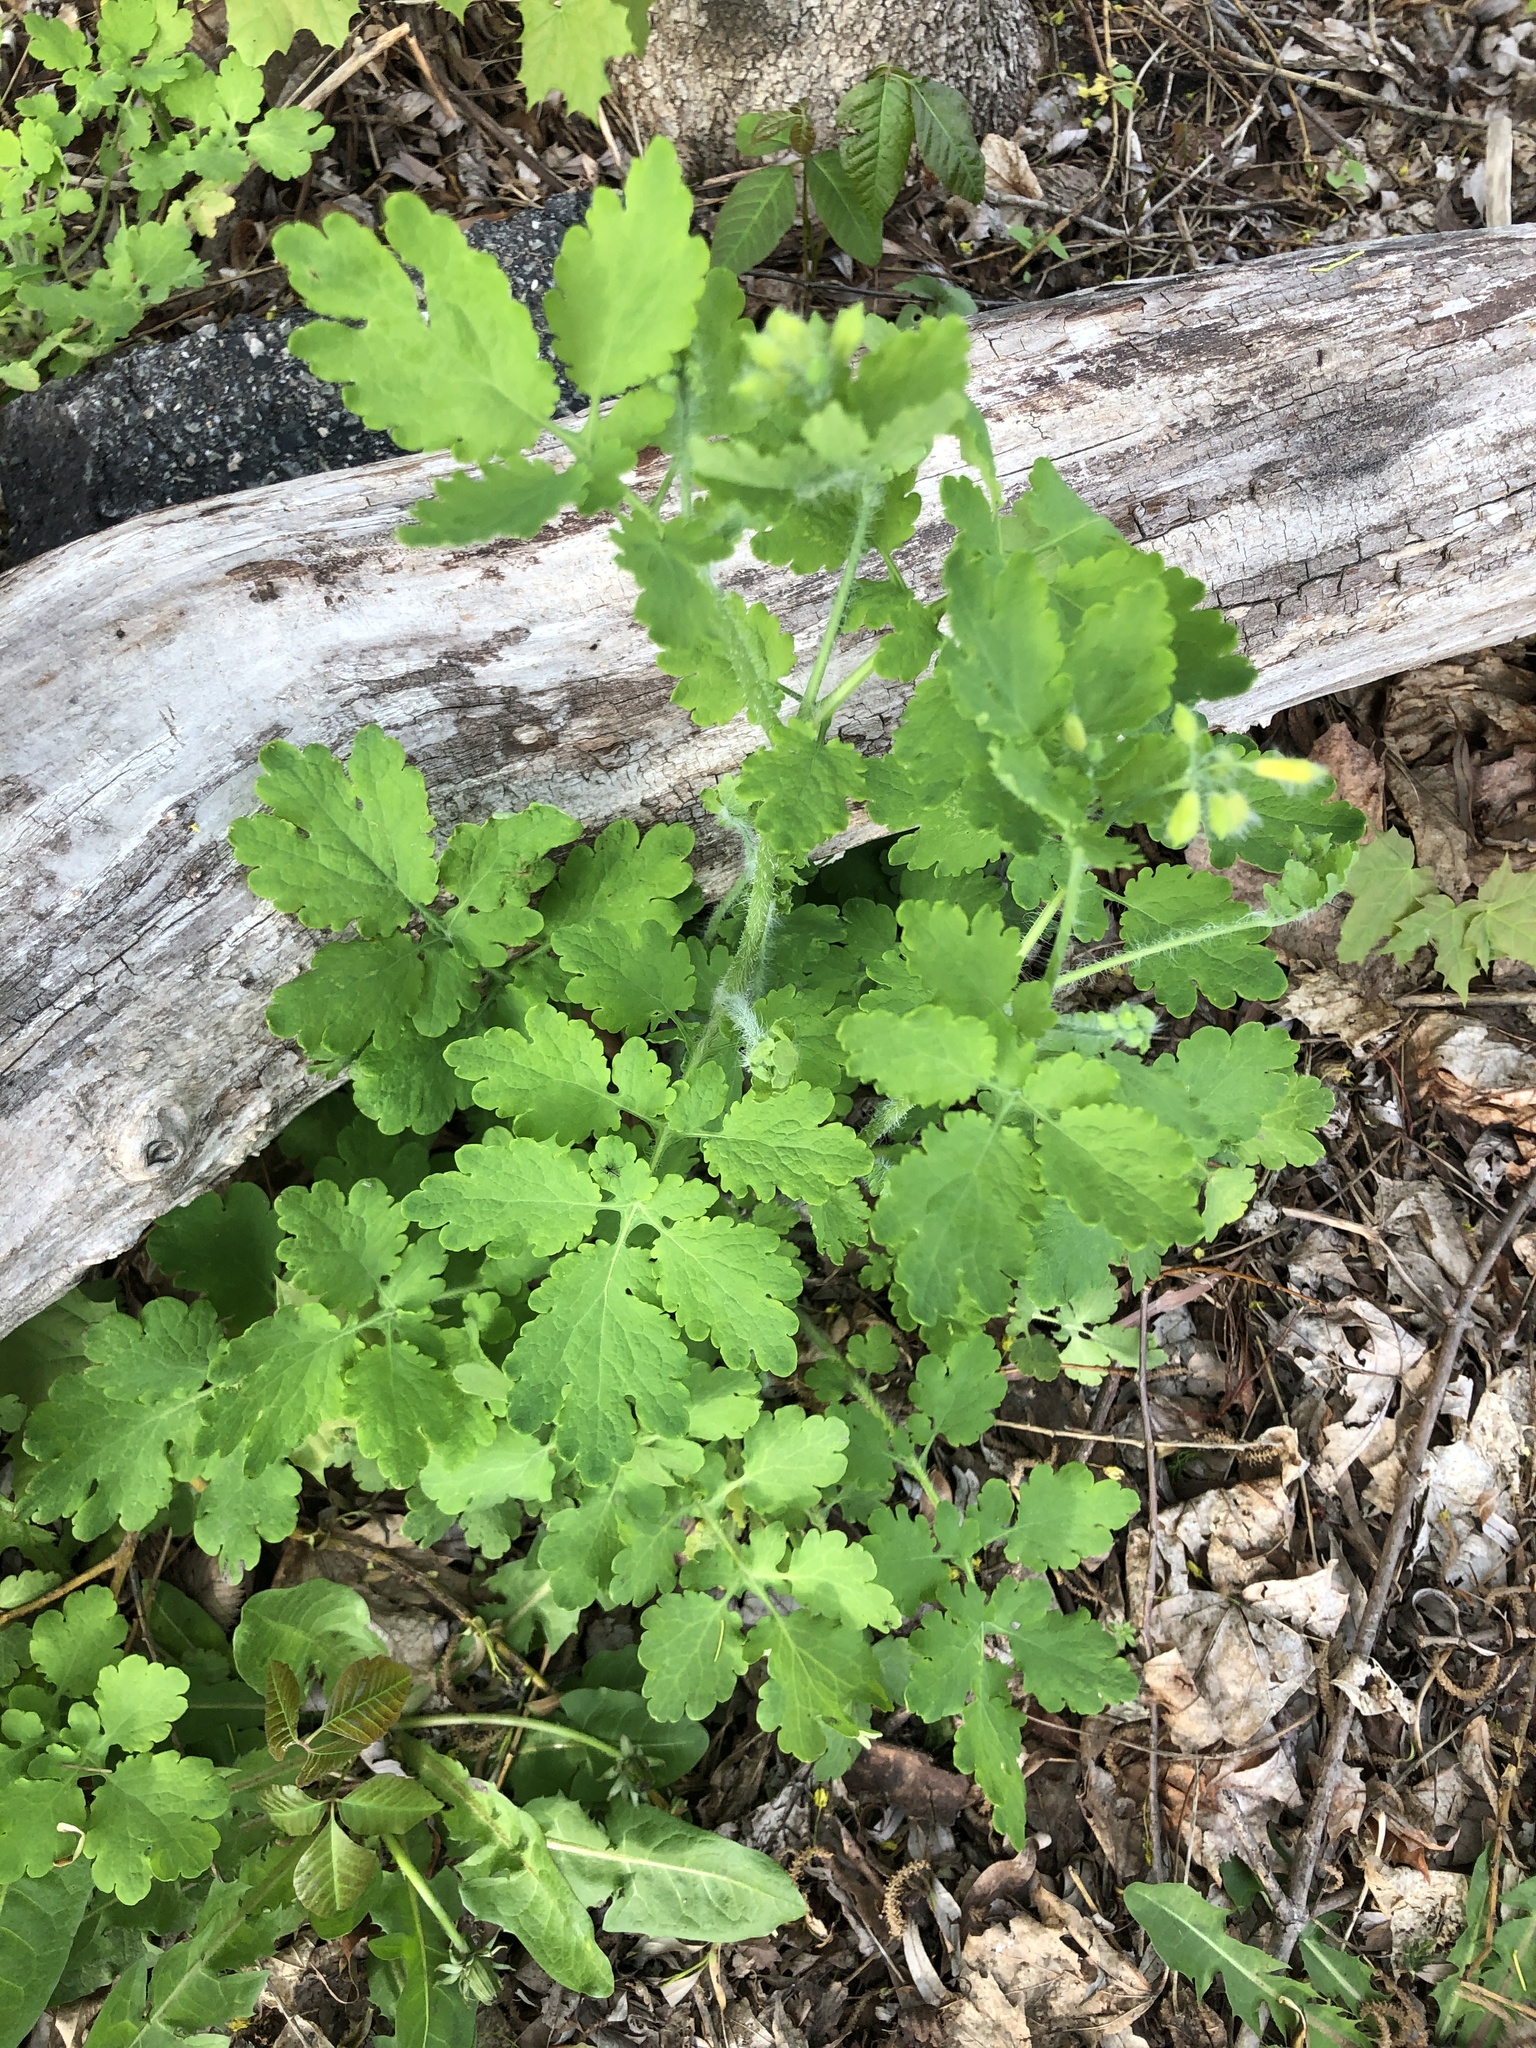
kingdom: Plantae
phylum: Tracheophyta
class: Magnoliopsida
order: Ranunculales
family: Papaveraceae
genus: Chelidonium
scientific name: Chelidonium majus
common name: Greater celandine
